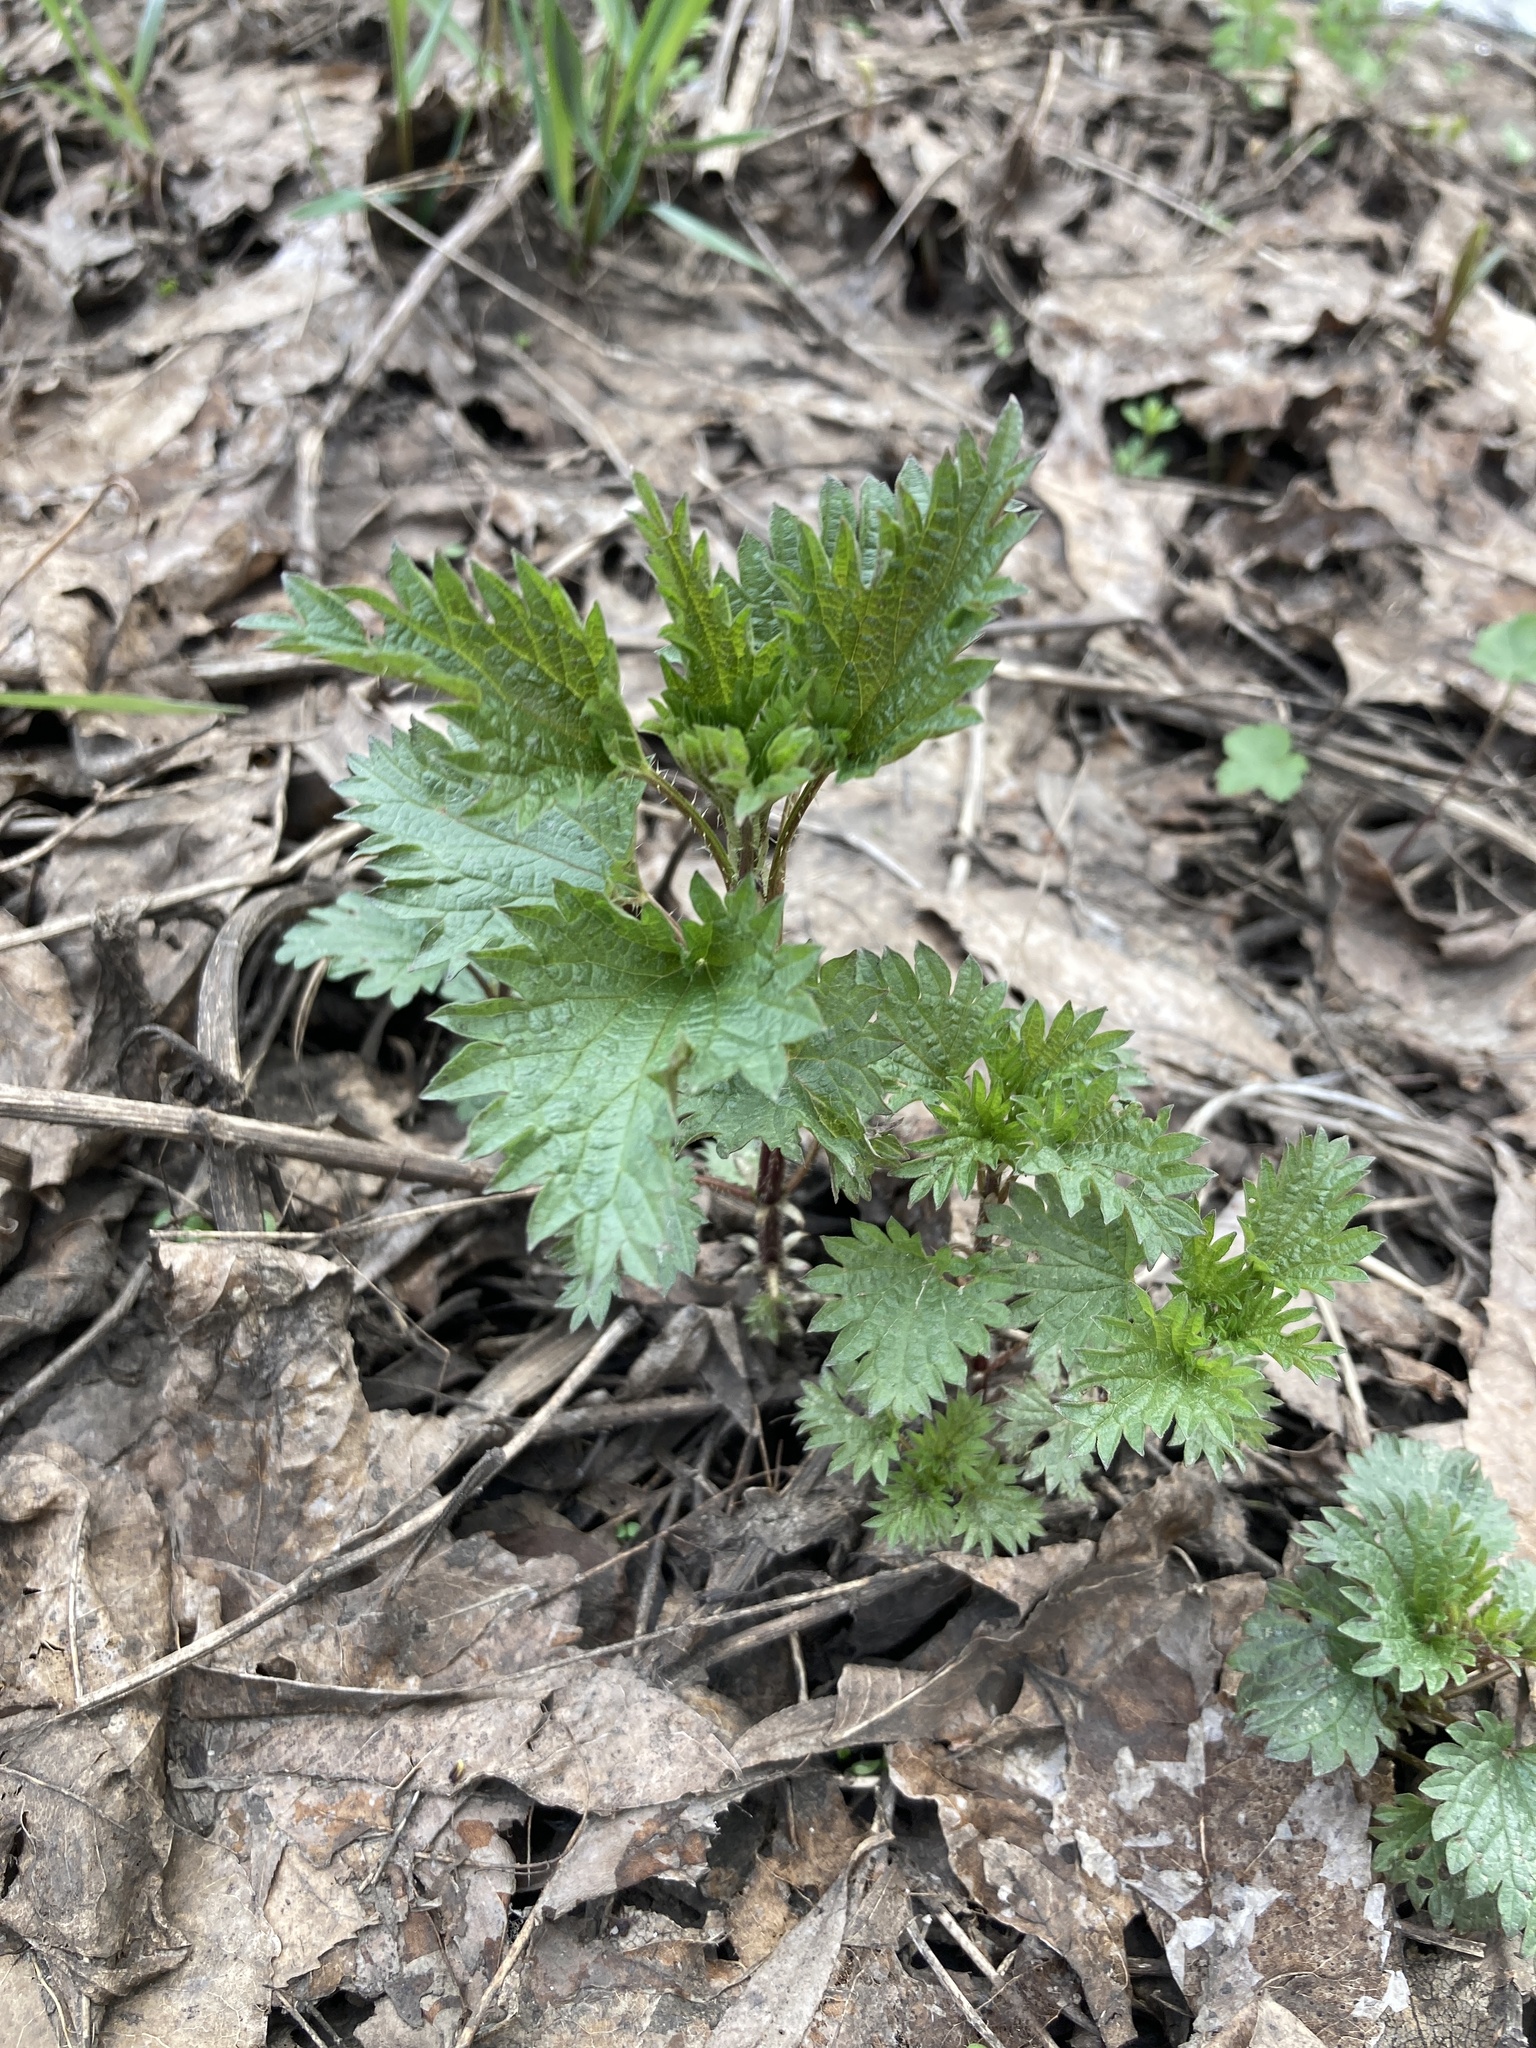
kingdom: Plantae
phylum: Tracheophyta
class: Magnoliopsida
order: Rosales
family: Urticaceae
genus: Urtica
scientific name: Urtica dioica
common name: Common nettle
